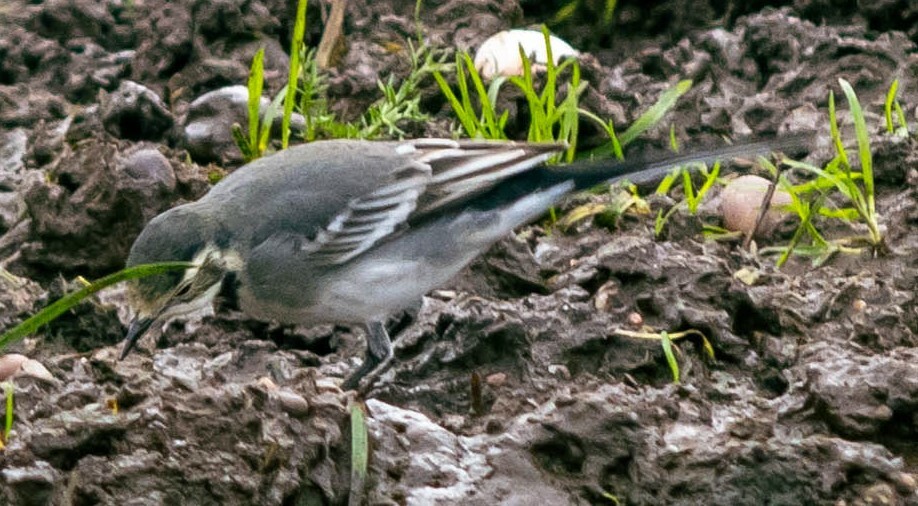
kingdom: Animalia
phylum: Chordata
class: Aves
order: Passeriformes
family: Motacillidae
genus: Motacilla
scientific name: Motacilla alba
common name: White wagtail
